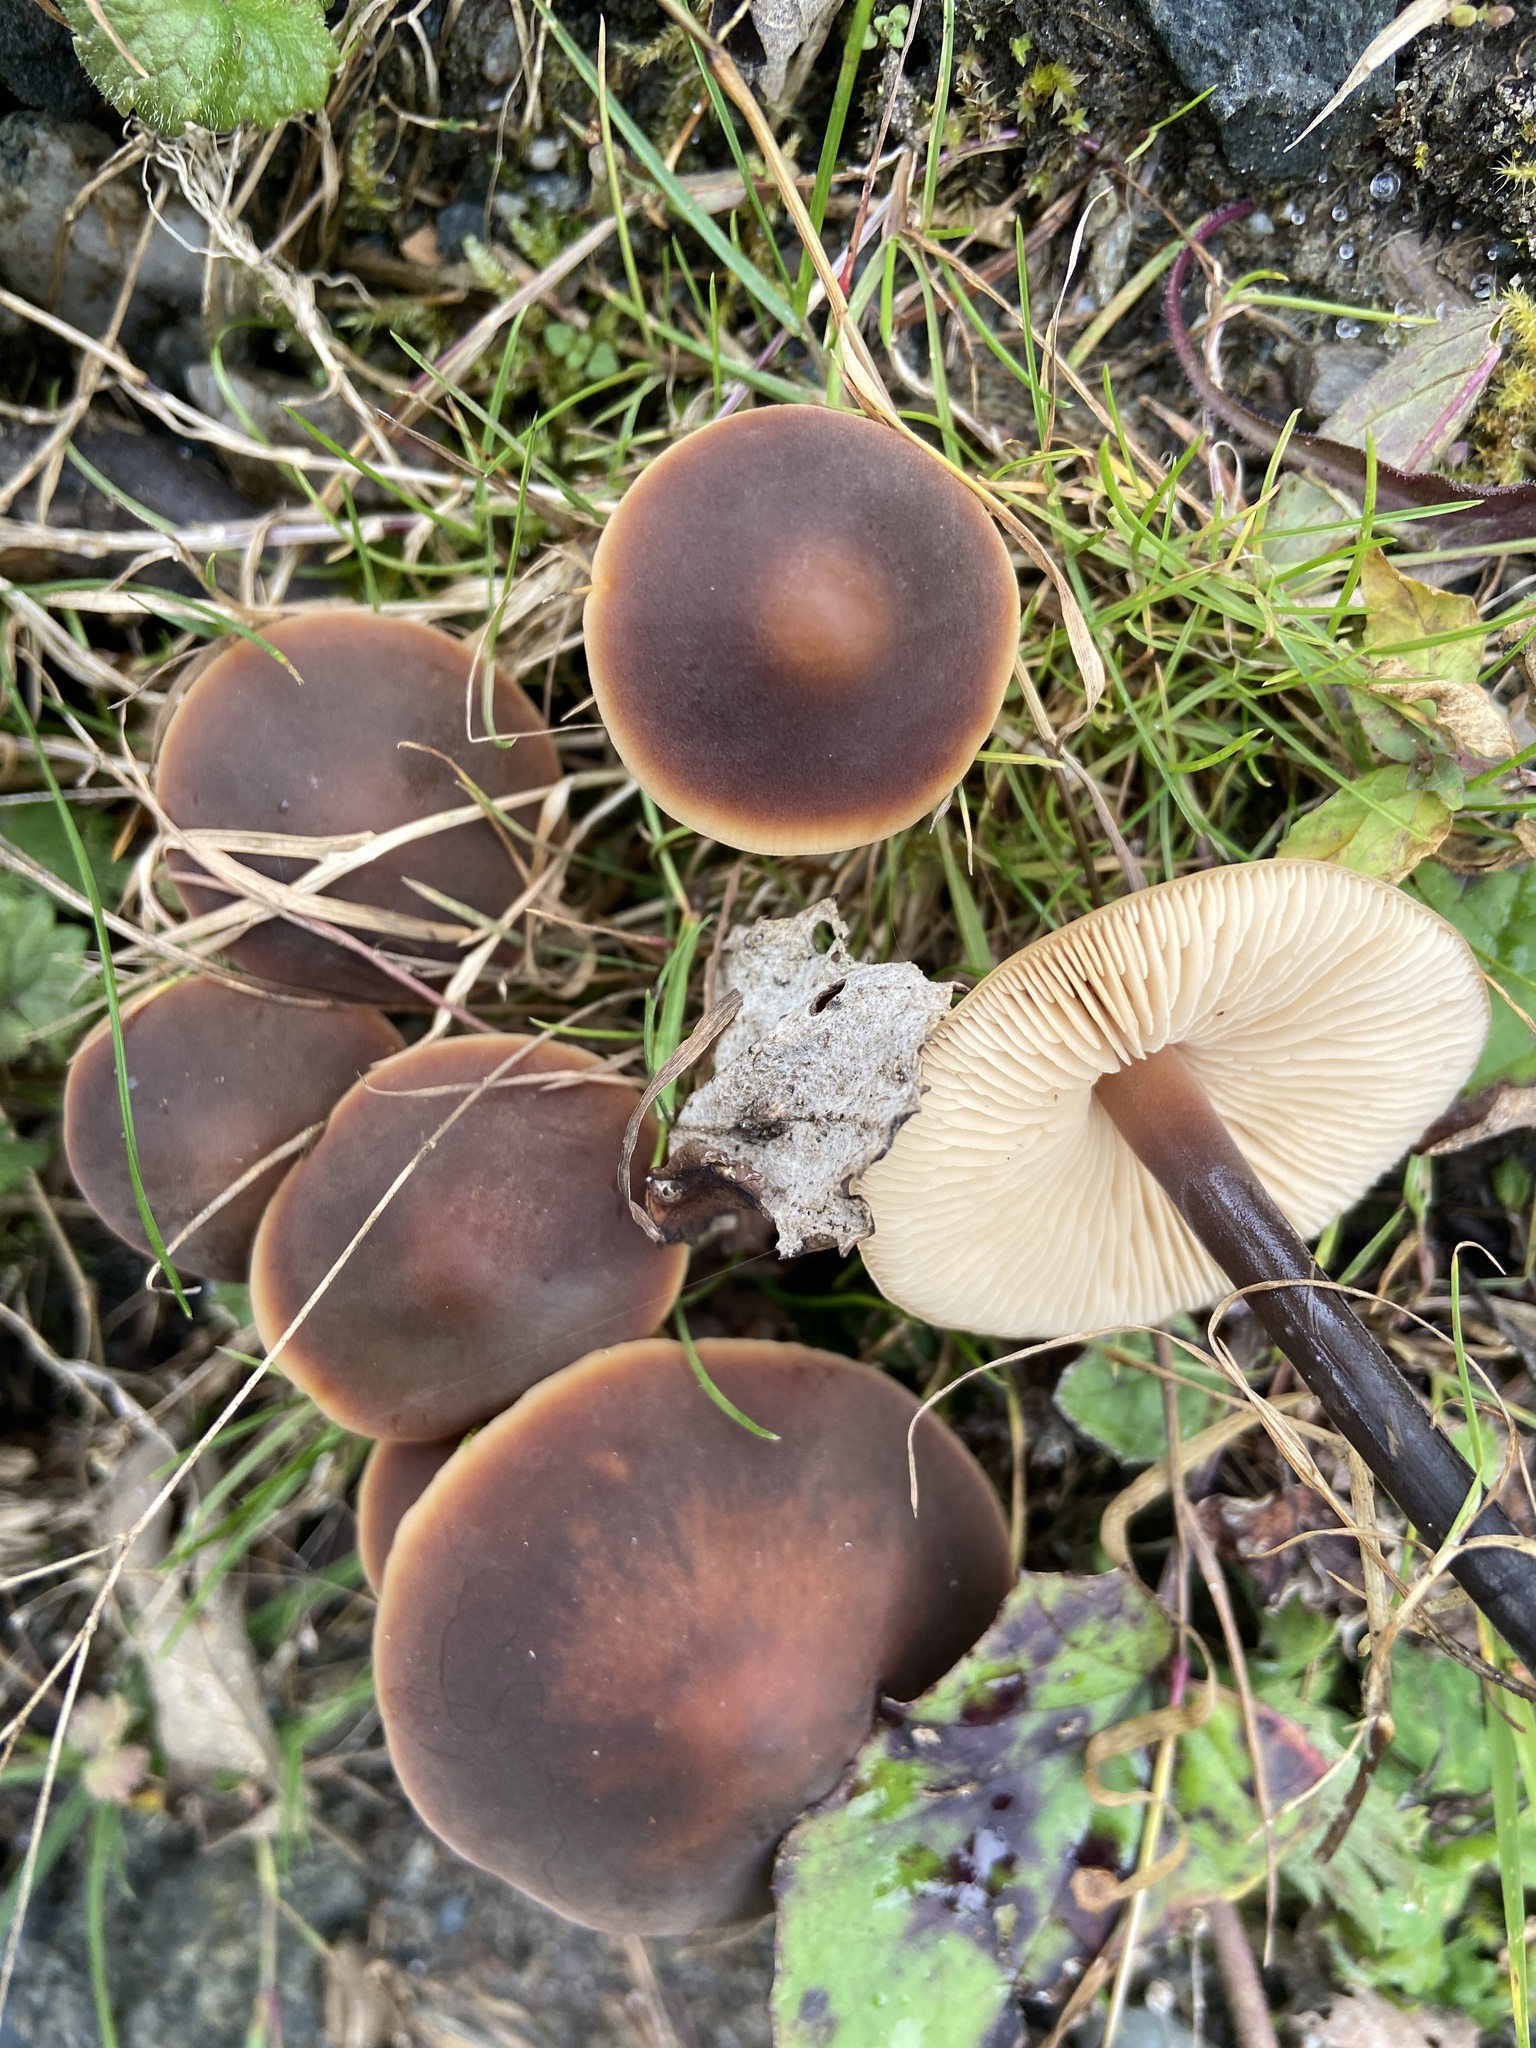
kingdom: Fungi
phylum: Basidiomycota
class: Agaricomycetes
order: Agaricales
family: Macrocystidiaceae
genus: Macrocystidia
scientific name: Macrocystidia cucumis
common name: Cucumber cap
